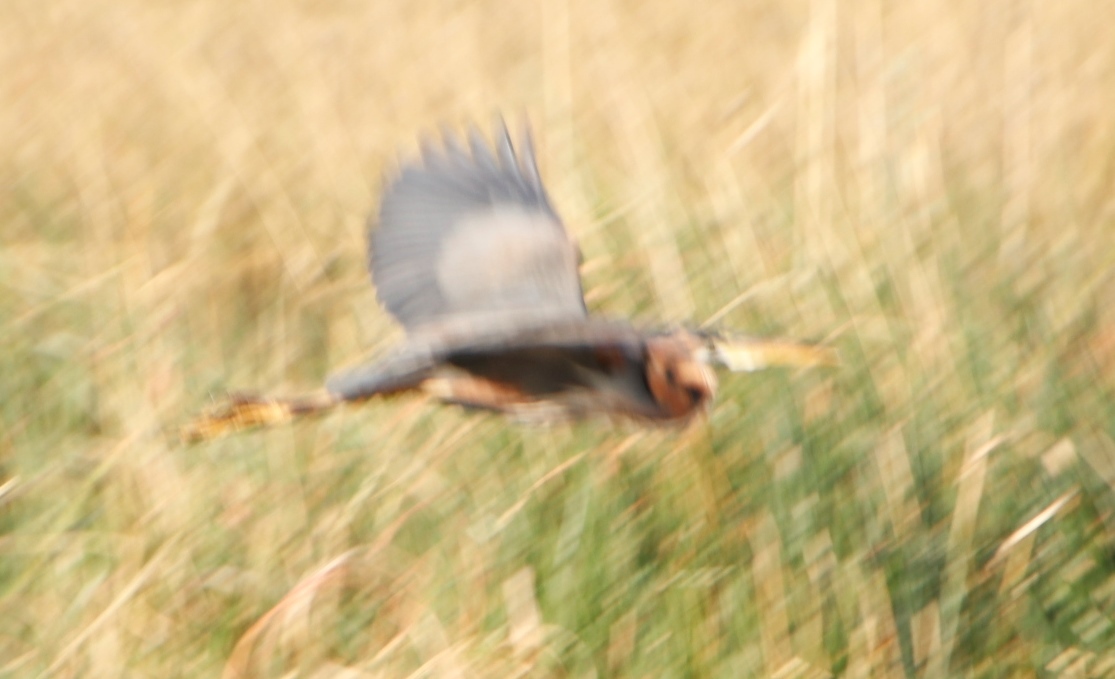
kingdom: Animalia
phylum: Chordata
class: Aves
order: Pelecaniformes
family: Ardeidae
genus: Ardea
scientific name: Ardea purpurea
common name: Purple heron
